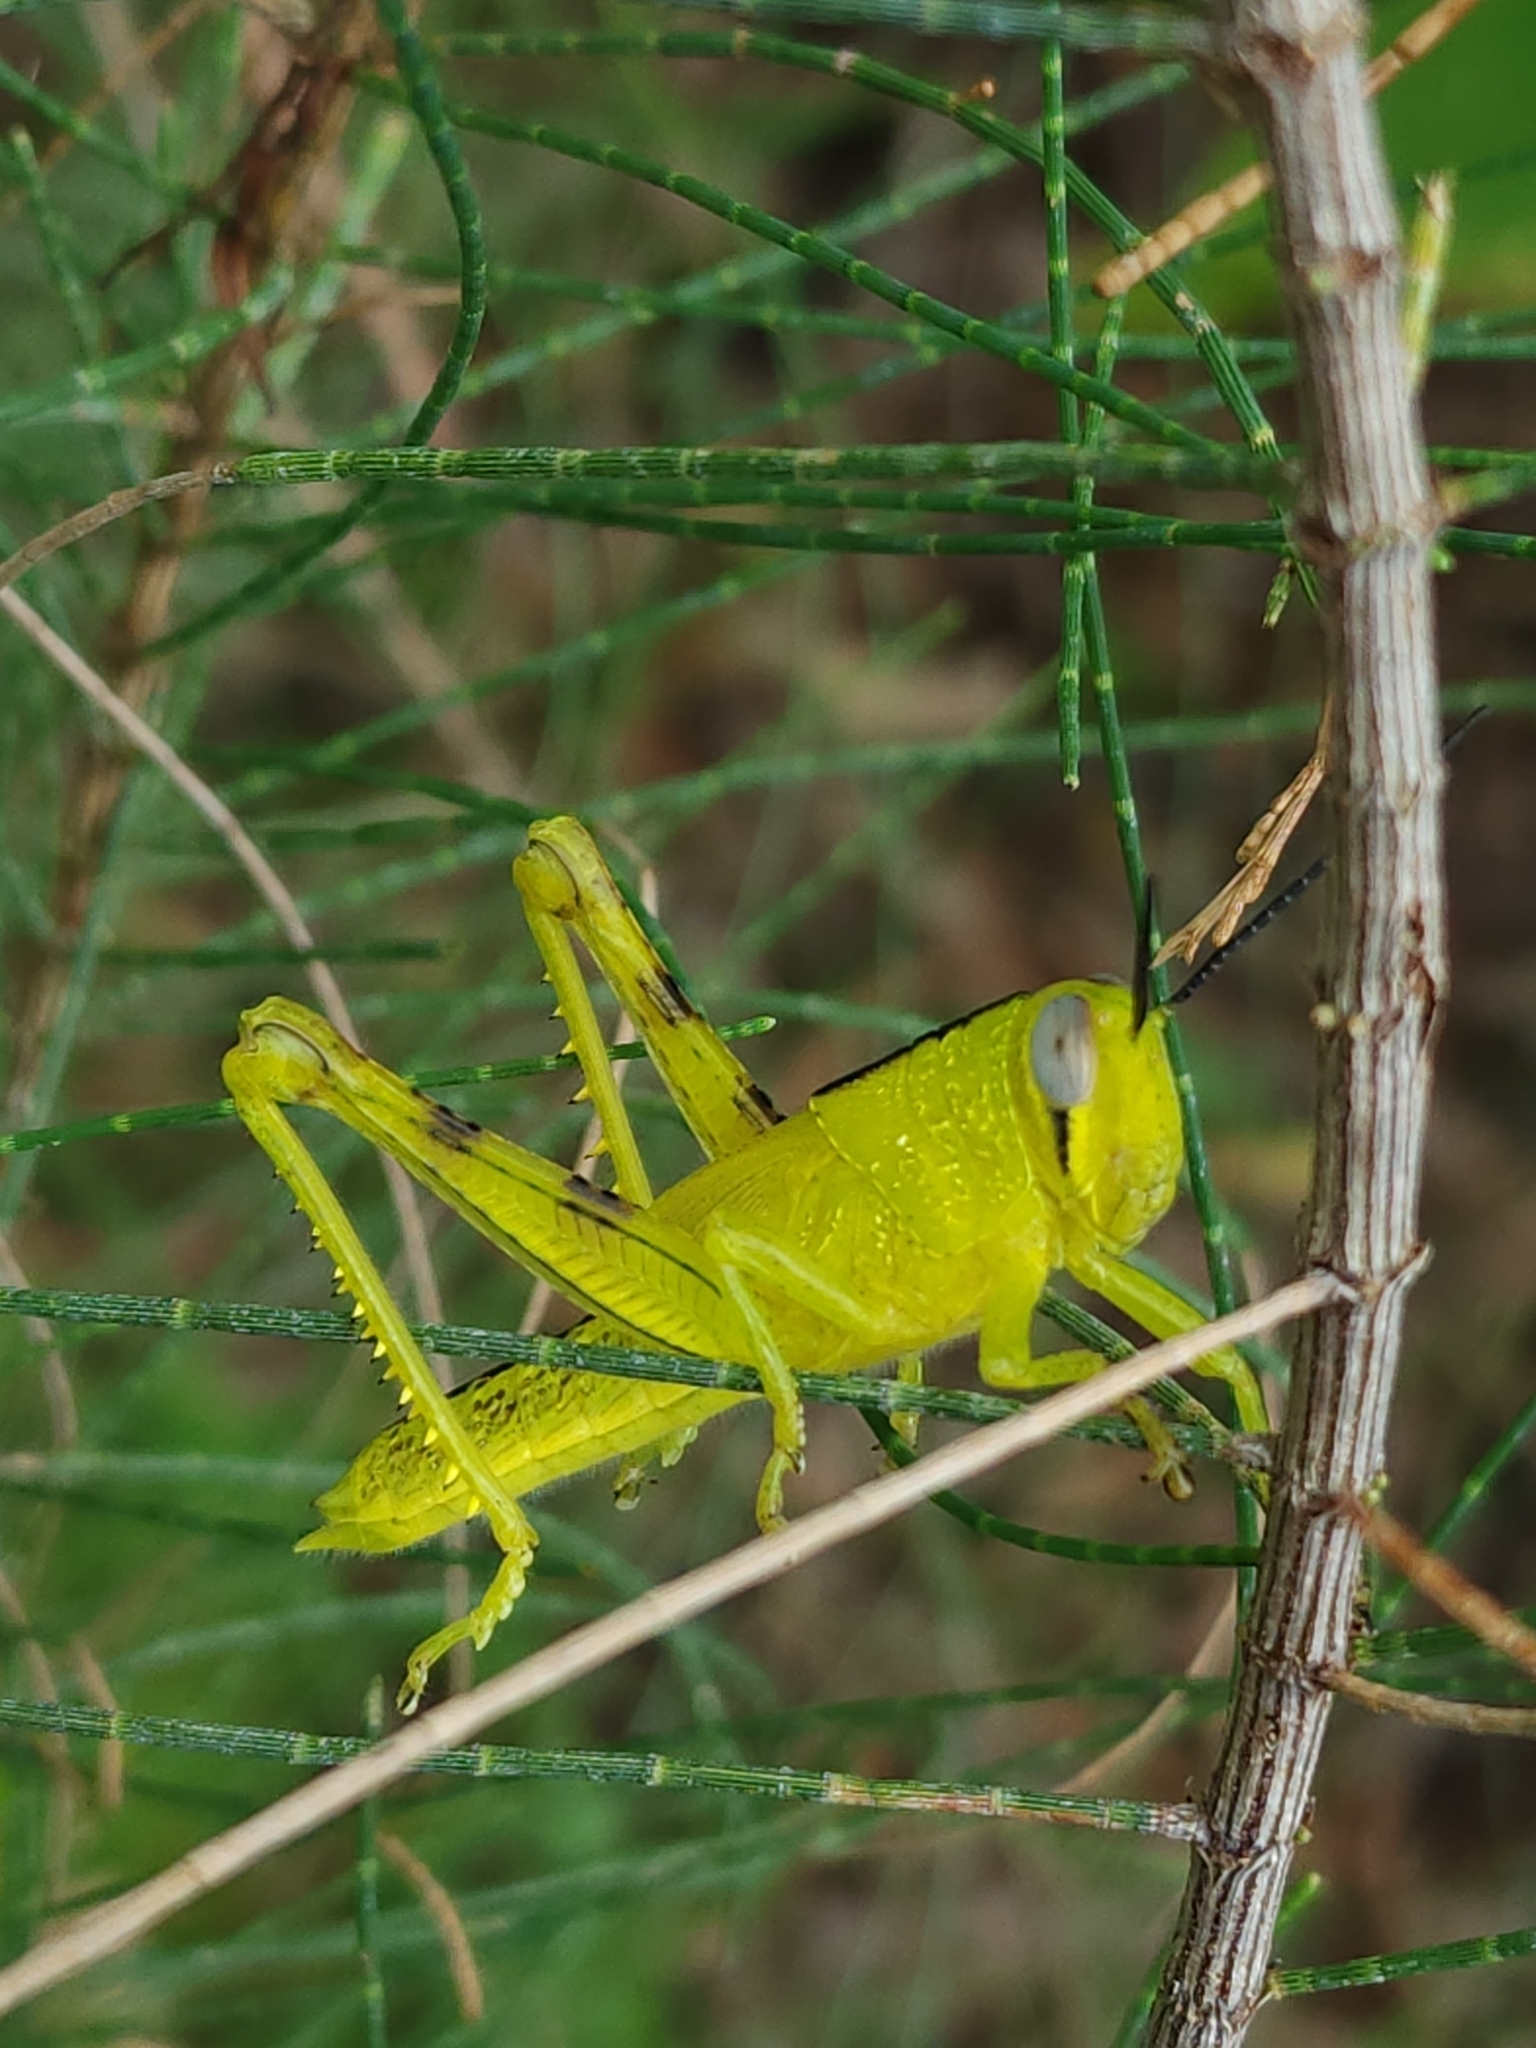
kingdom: Animalia
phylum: Arthropoda
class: Insecta
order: Orthoptera
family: Acrididae
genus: Valanga
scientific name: Valanga irregularis
